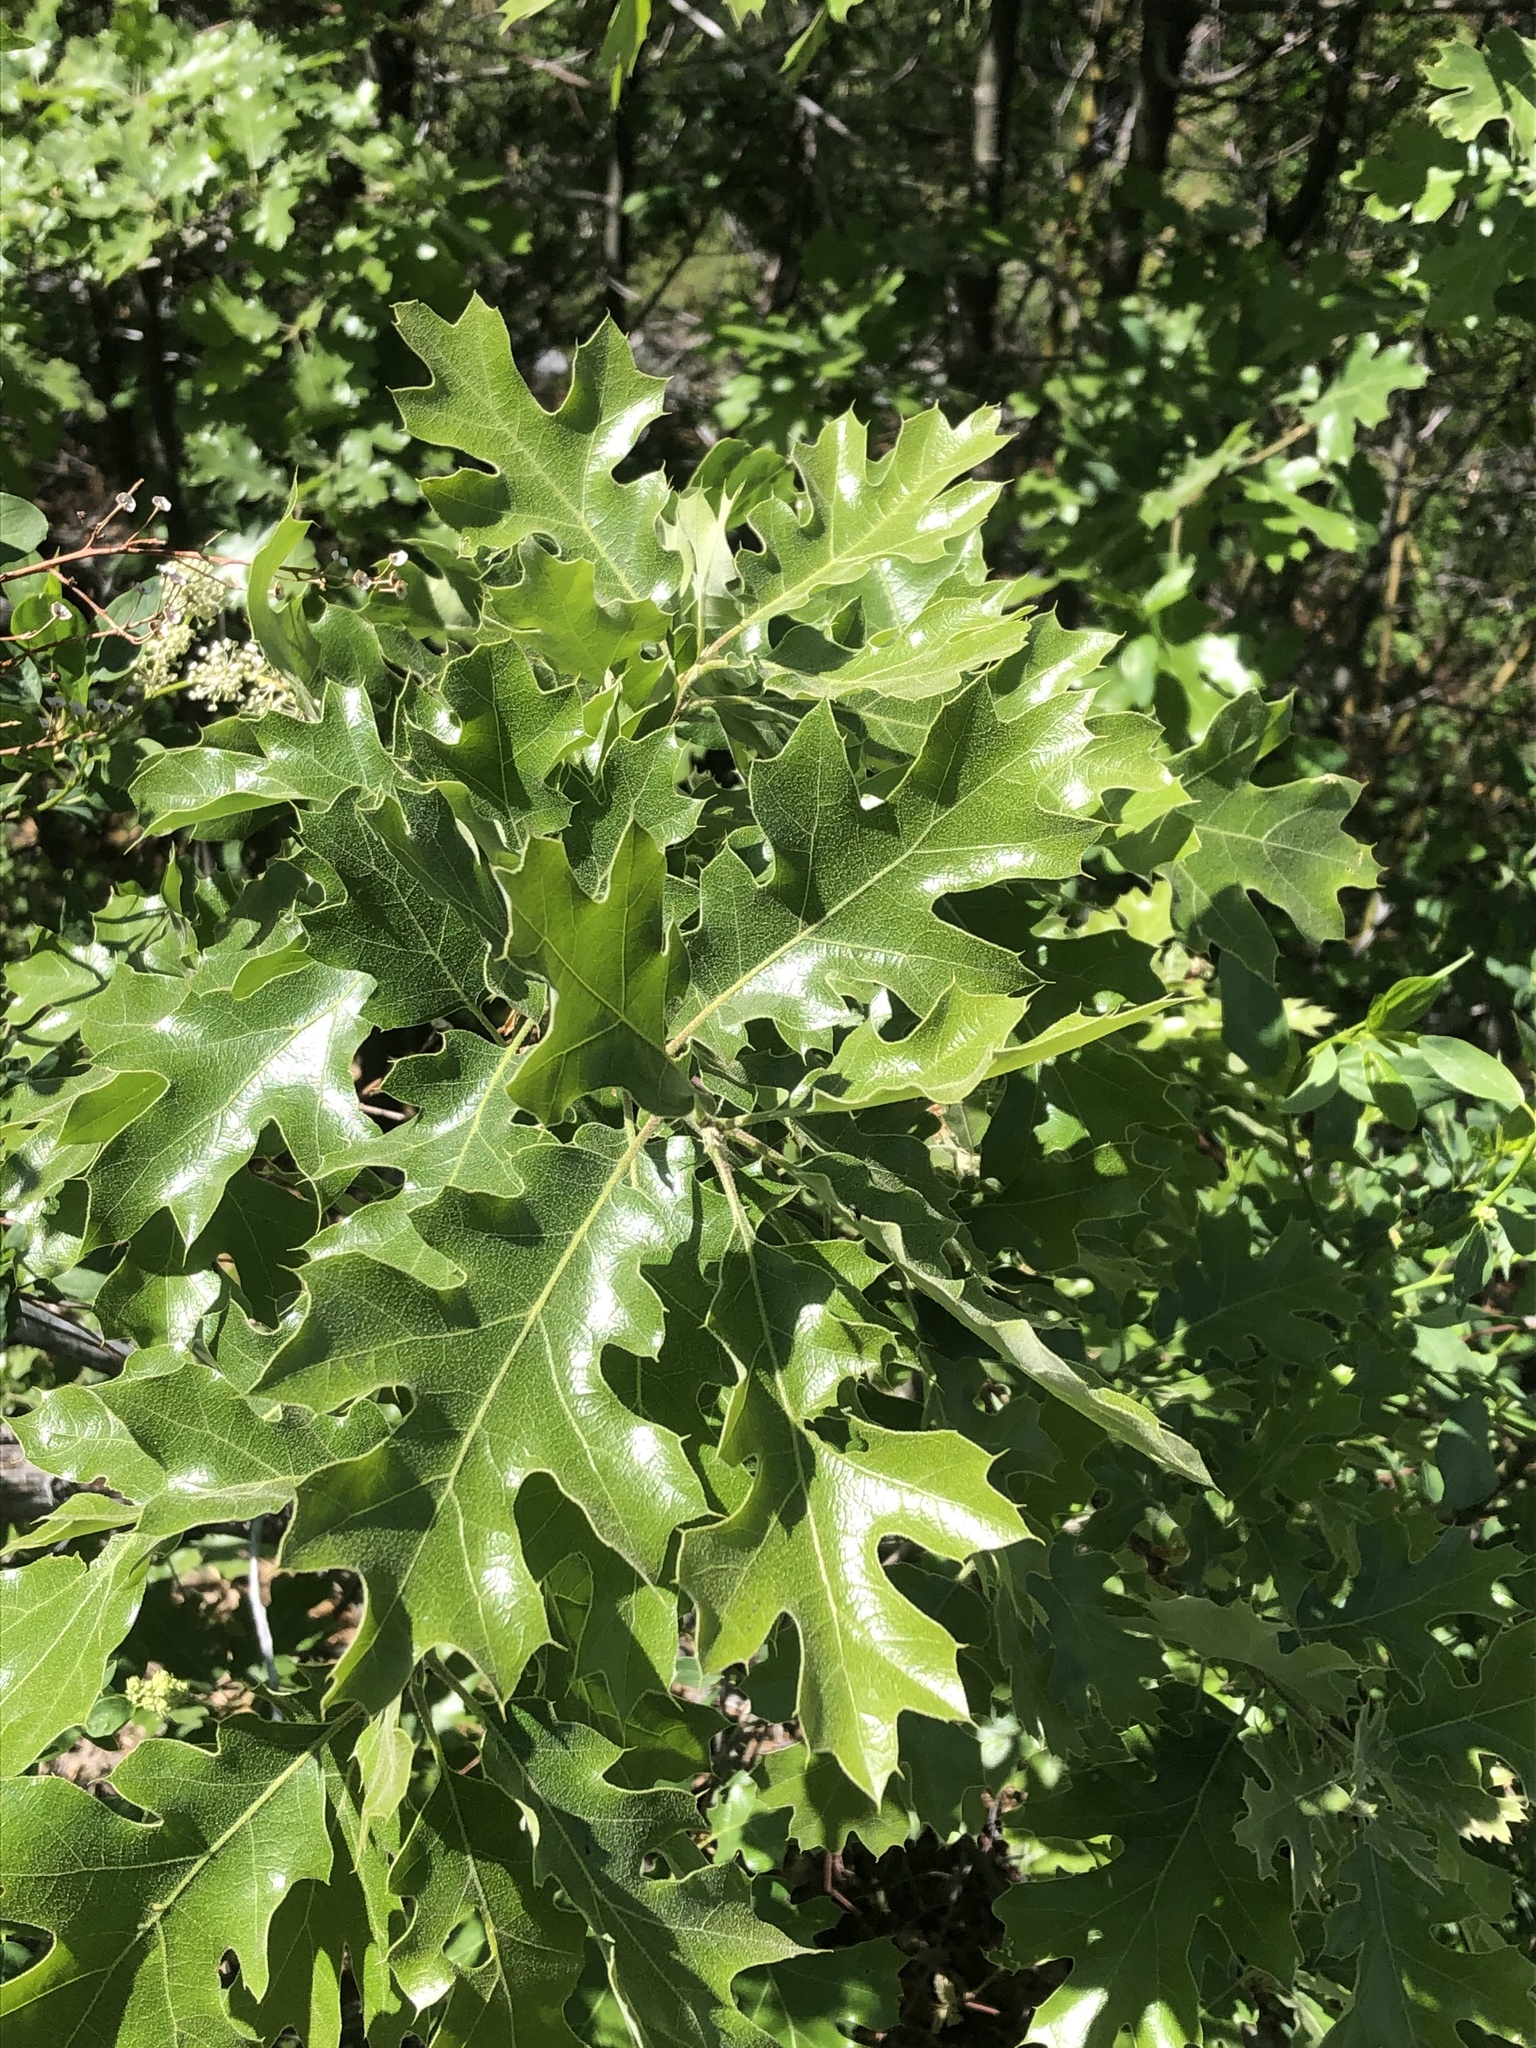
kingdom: Plantae
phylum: Tracheophyta
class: Magnoliopsida
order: Fagales
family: Fagaceae
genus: Quercus
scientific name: Quercus kelloggii
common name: California black oak
